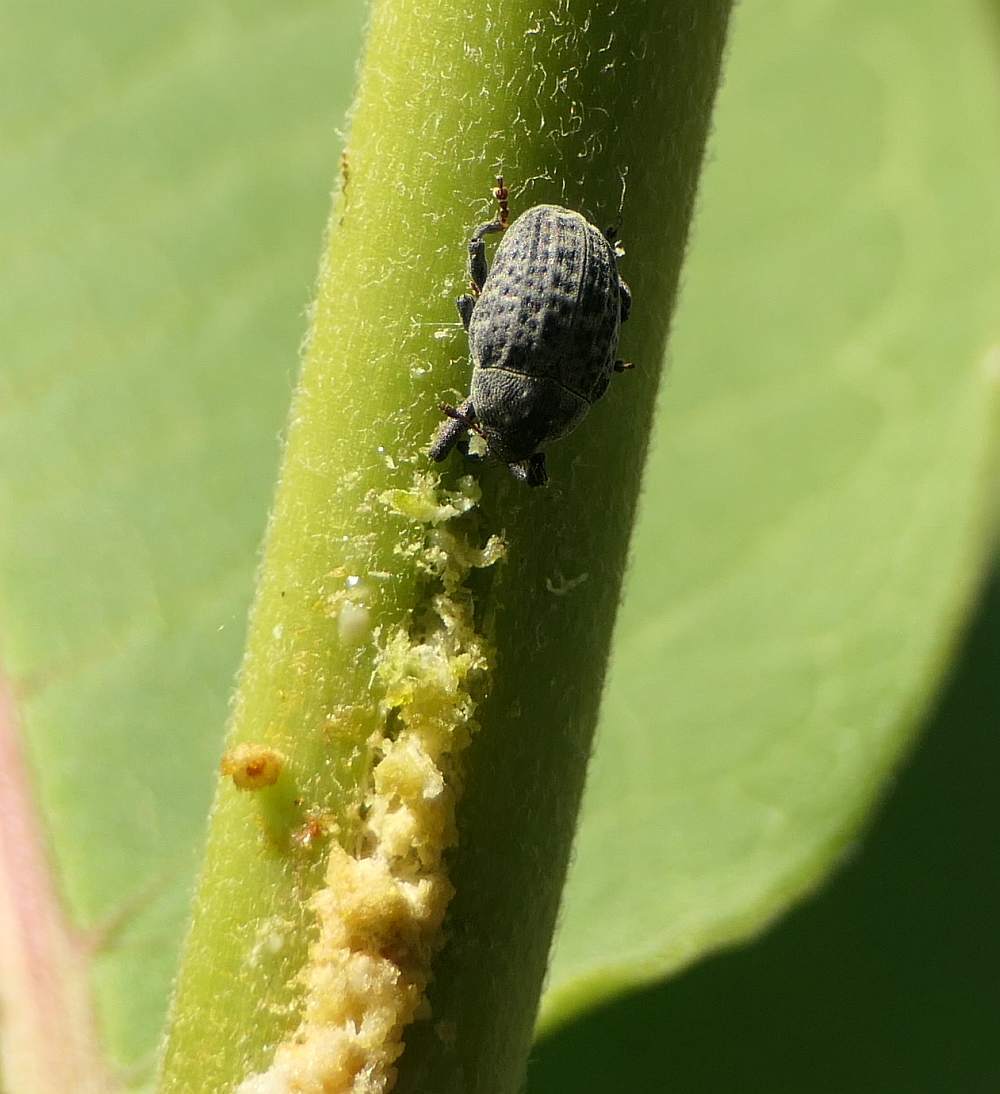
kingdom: Animalia
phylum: Arthropoda
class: Insecta
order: Coleoptera
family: Curculionidae
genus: Rhyssomatus
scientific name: Rhyssomatus lineaticollis
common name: Milkweed stem weevil
